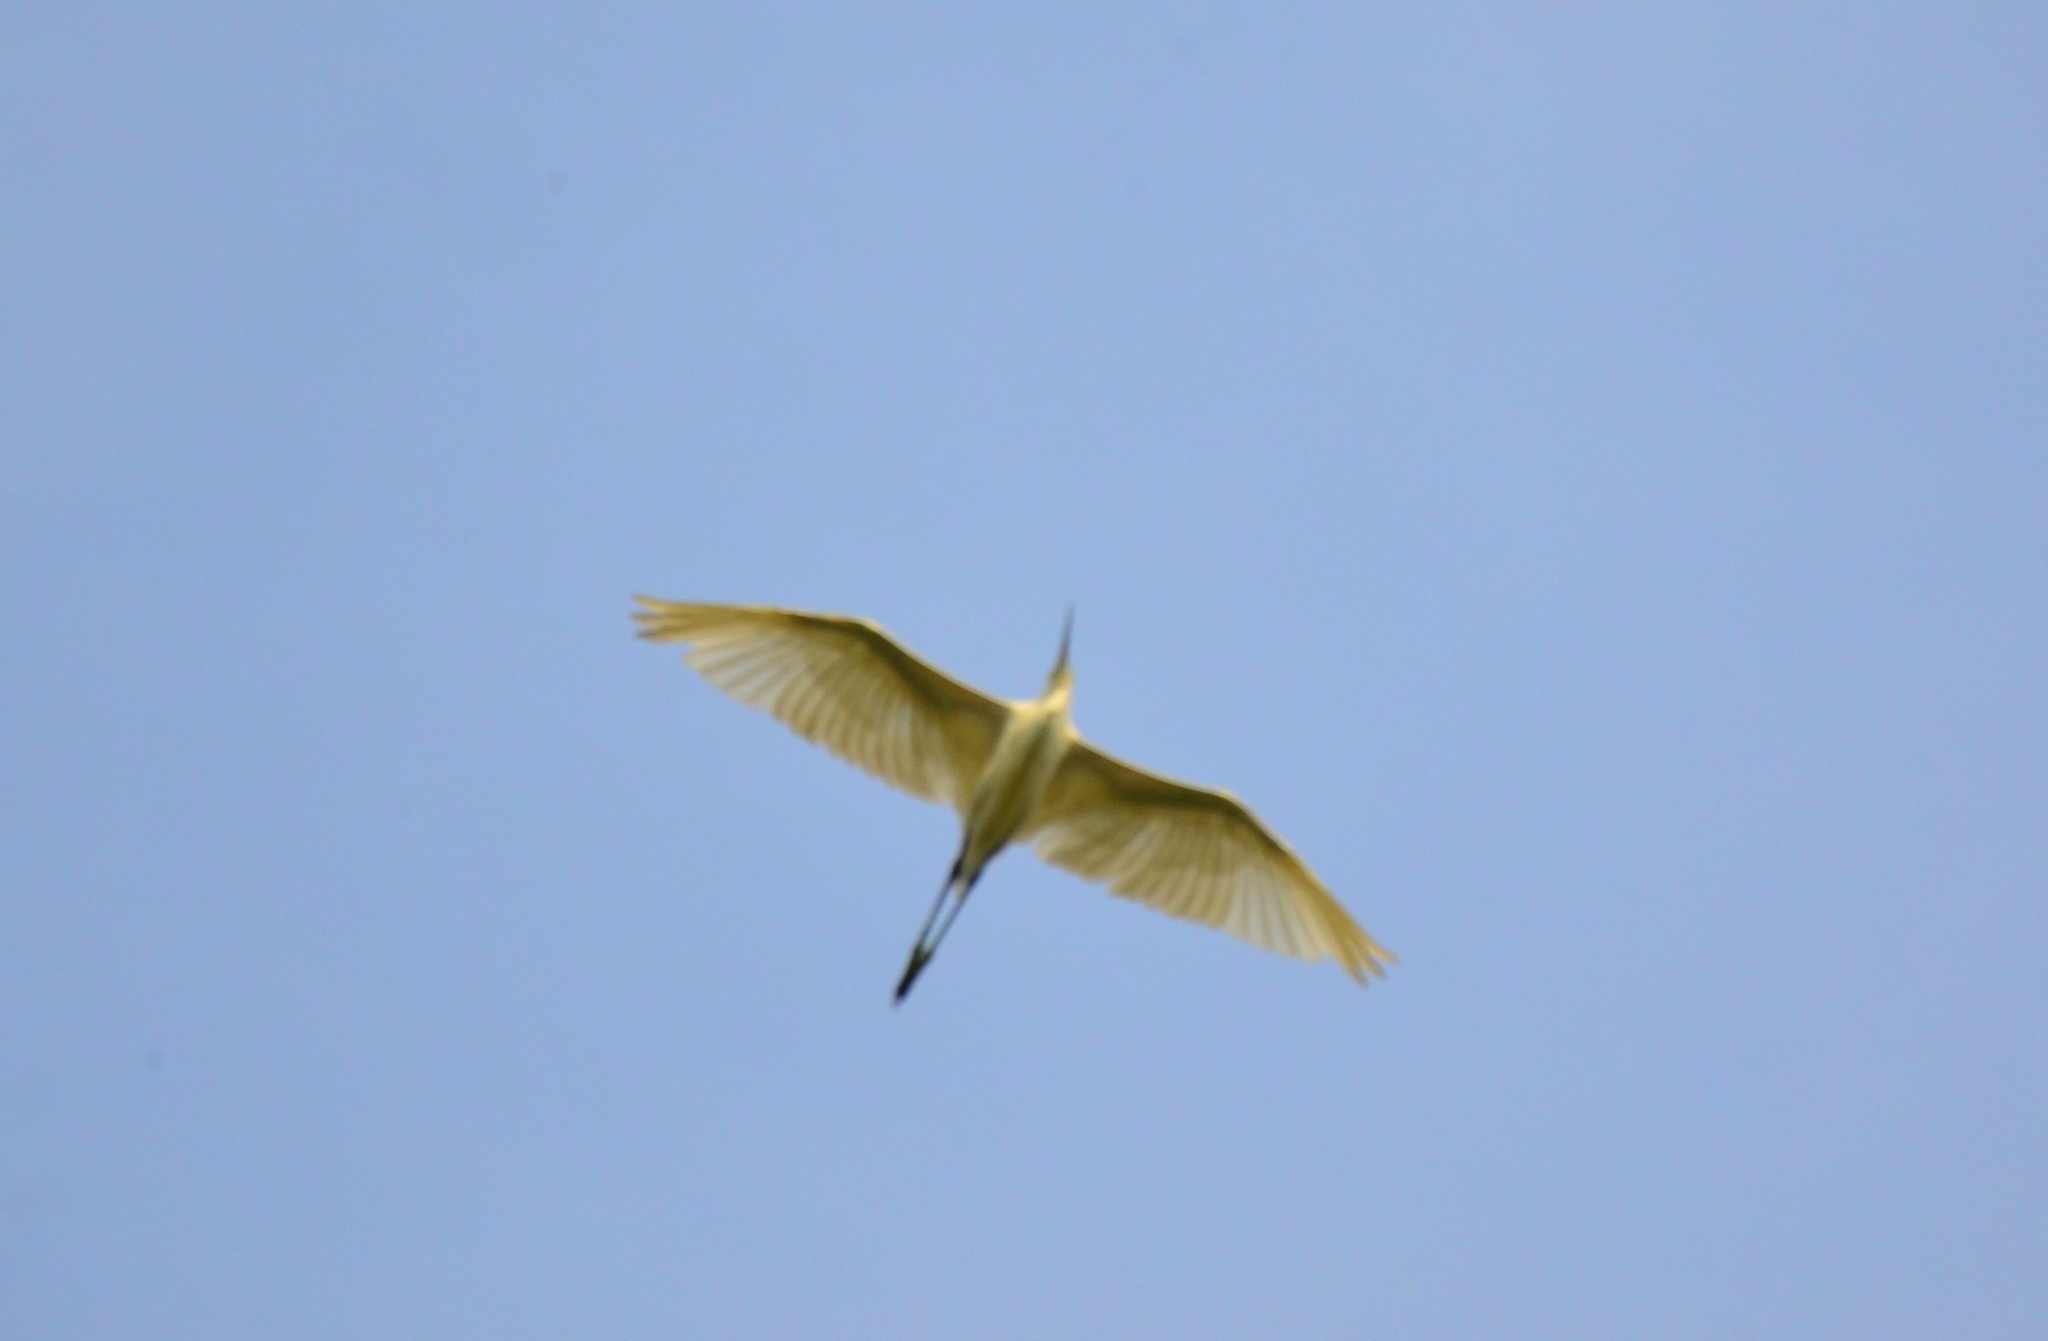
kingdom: Animalia
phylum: Chordata
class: Aves
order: Pelecaniformes
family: Ardeidae
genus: Egretta
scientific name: Egretta garzetta
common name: Little egret
